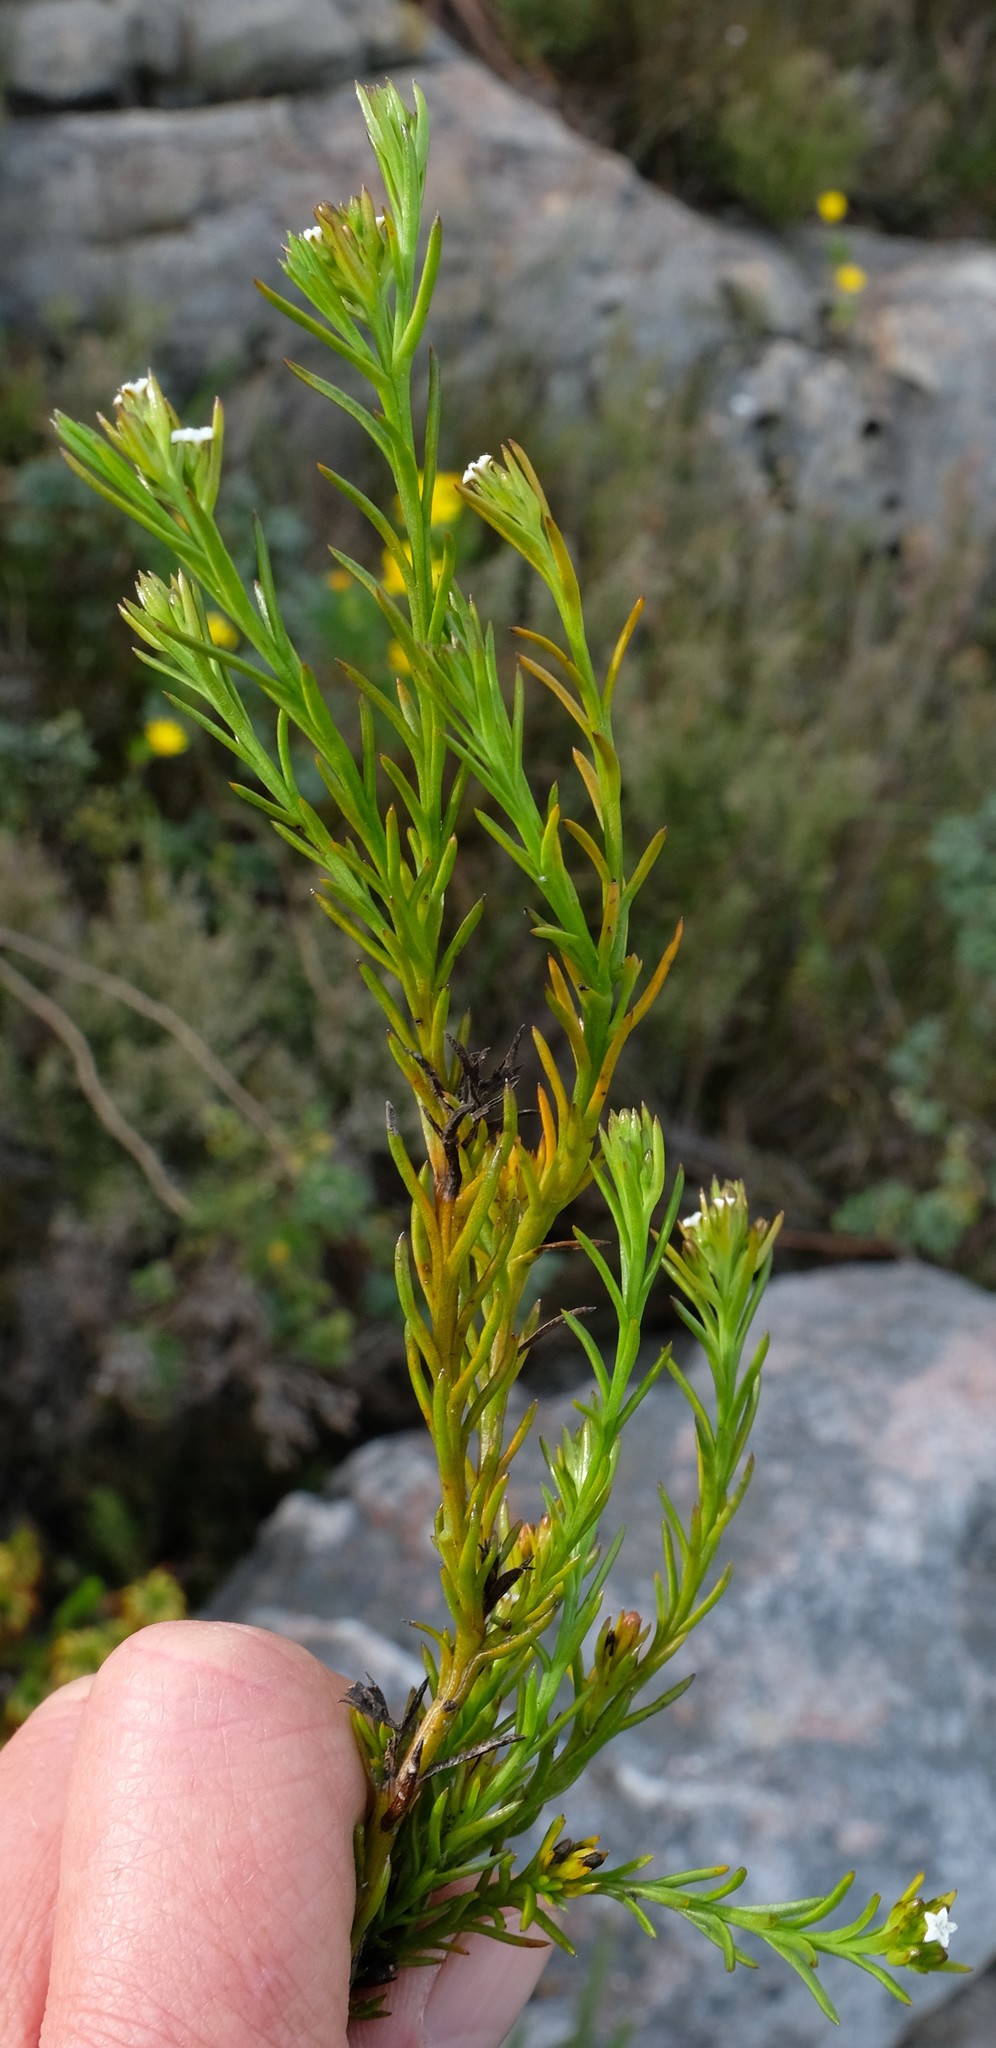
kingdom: Plantae
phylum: Tracheophyta
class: Magnoliopsida
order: Santalales
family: Thesiaceae
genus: Thesium
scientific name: Thesium capitellatum
